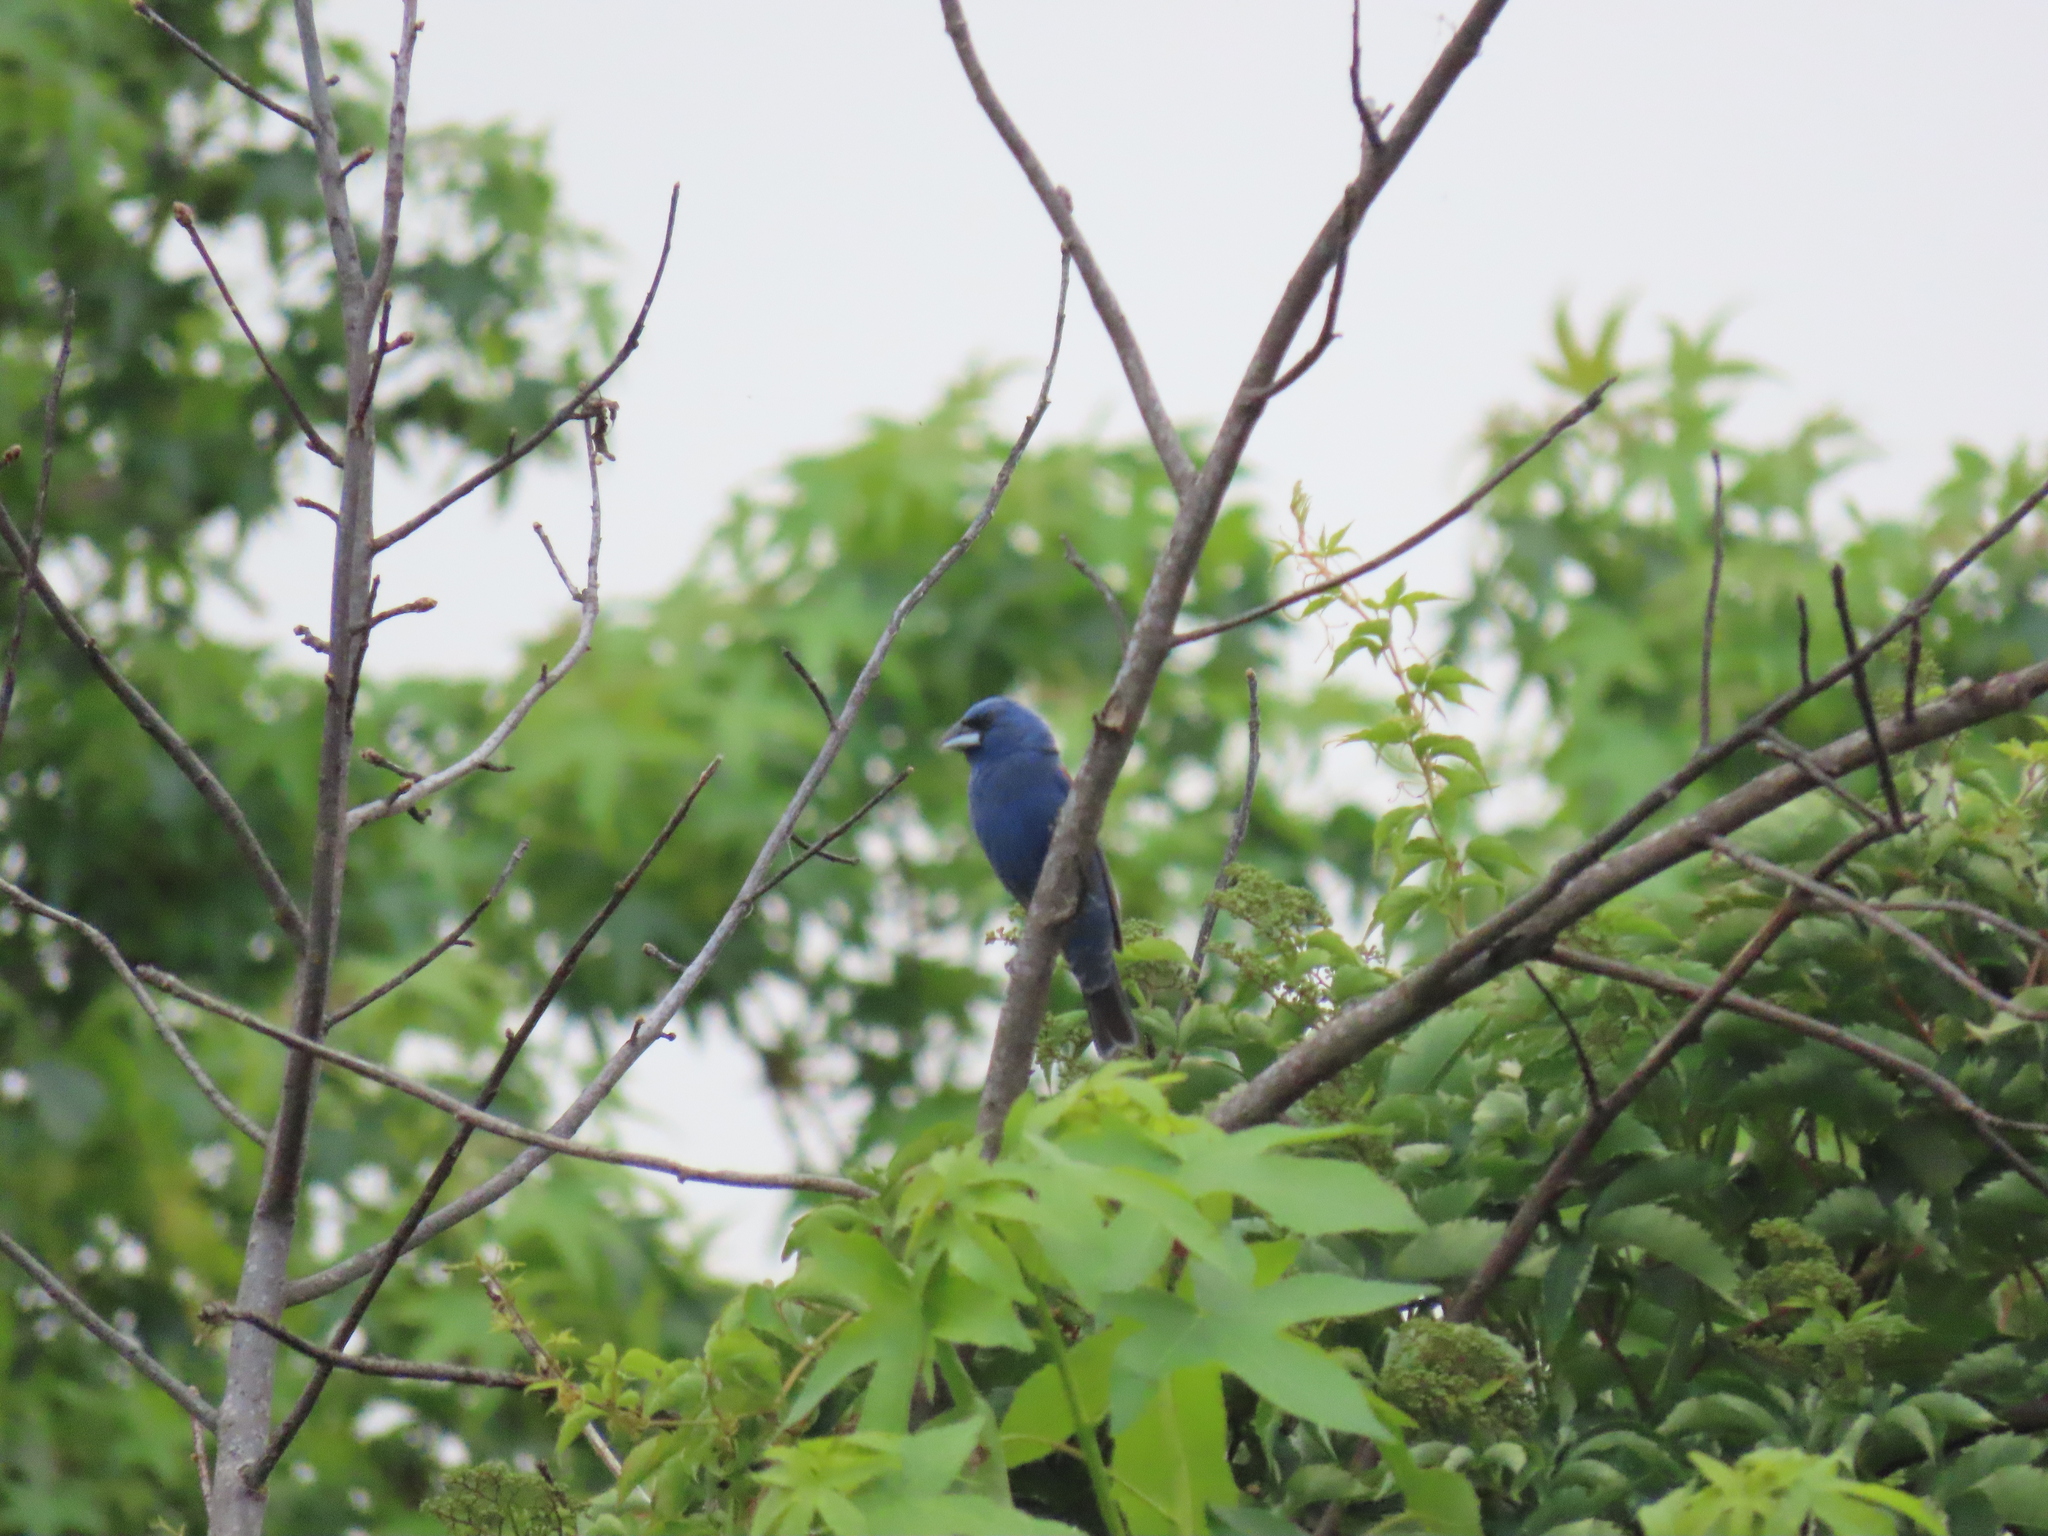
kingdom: Animalia
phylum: Chordata
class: Aves
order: Passeriformes
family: Cardinalidae
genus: Passerina
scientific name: Passerina caerulea
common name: Blue grosbeak
